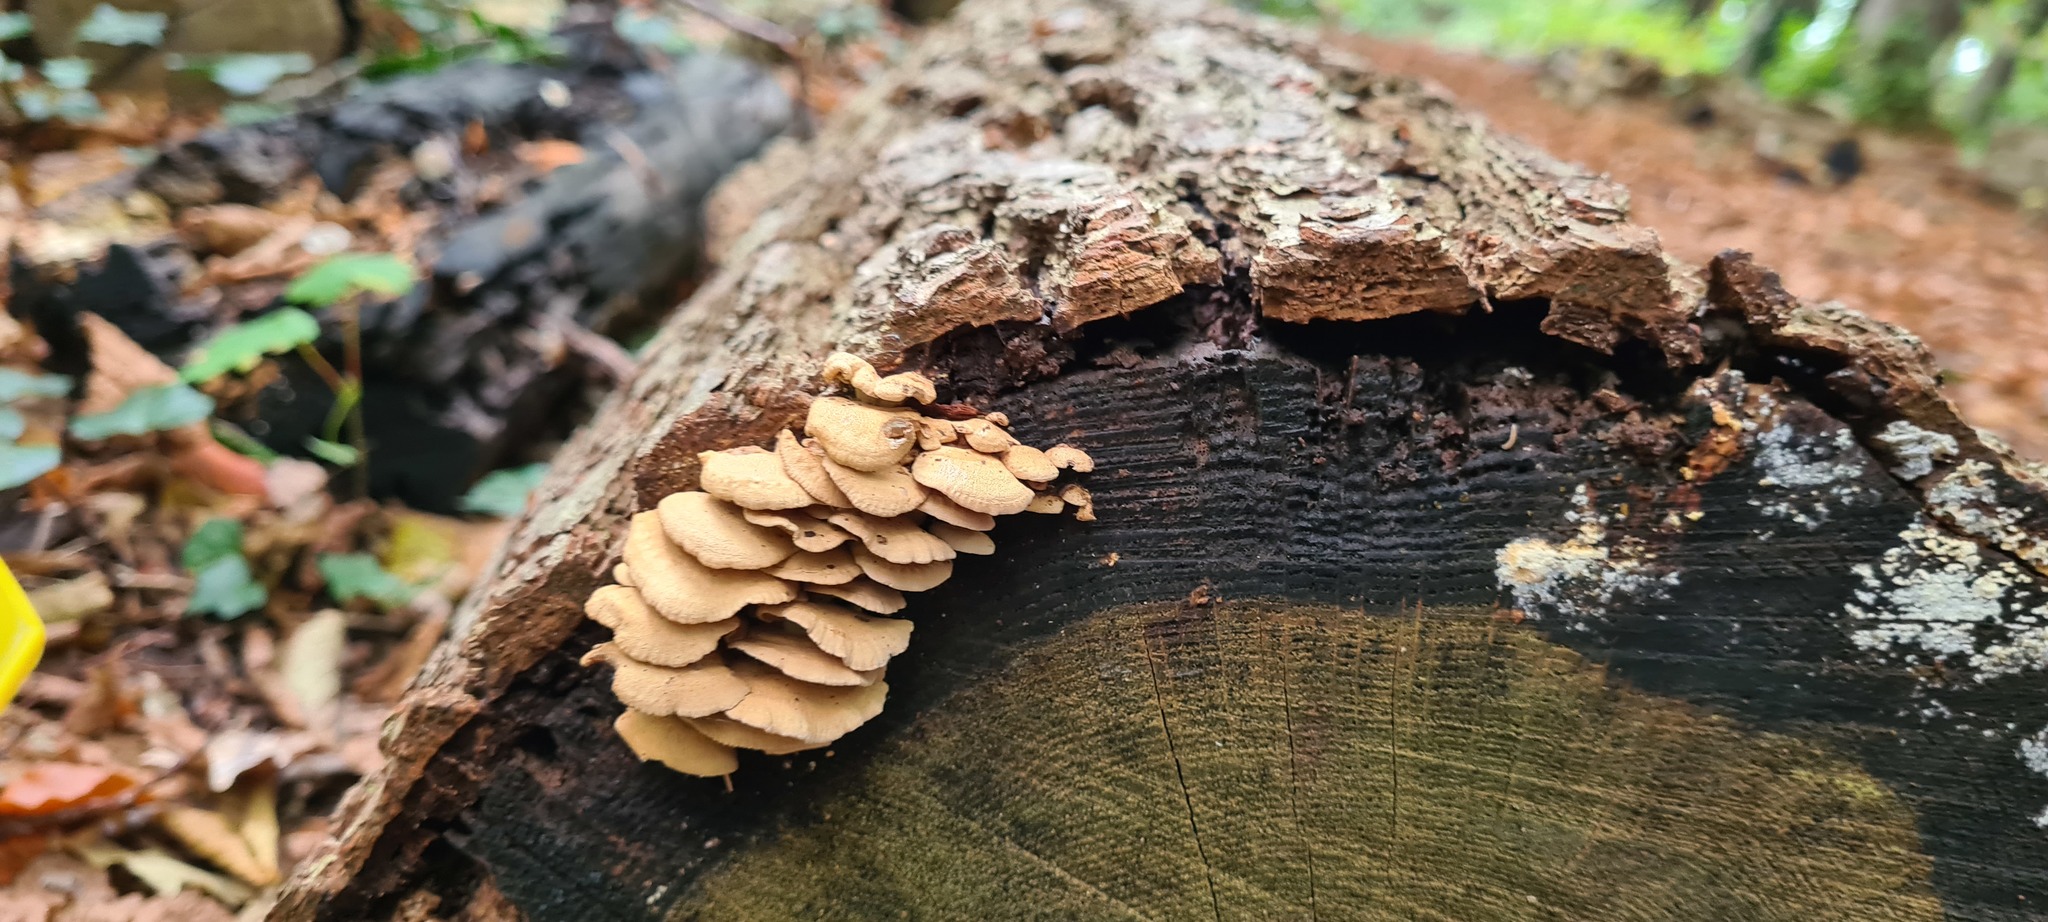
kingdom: Fungi
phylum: Basidiomycota
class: Agaricomycetes
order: Agaricales
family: Mycenaceae
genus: Panellus
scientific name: Panellus stipticus
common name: Bitter oysterling
